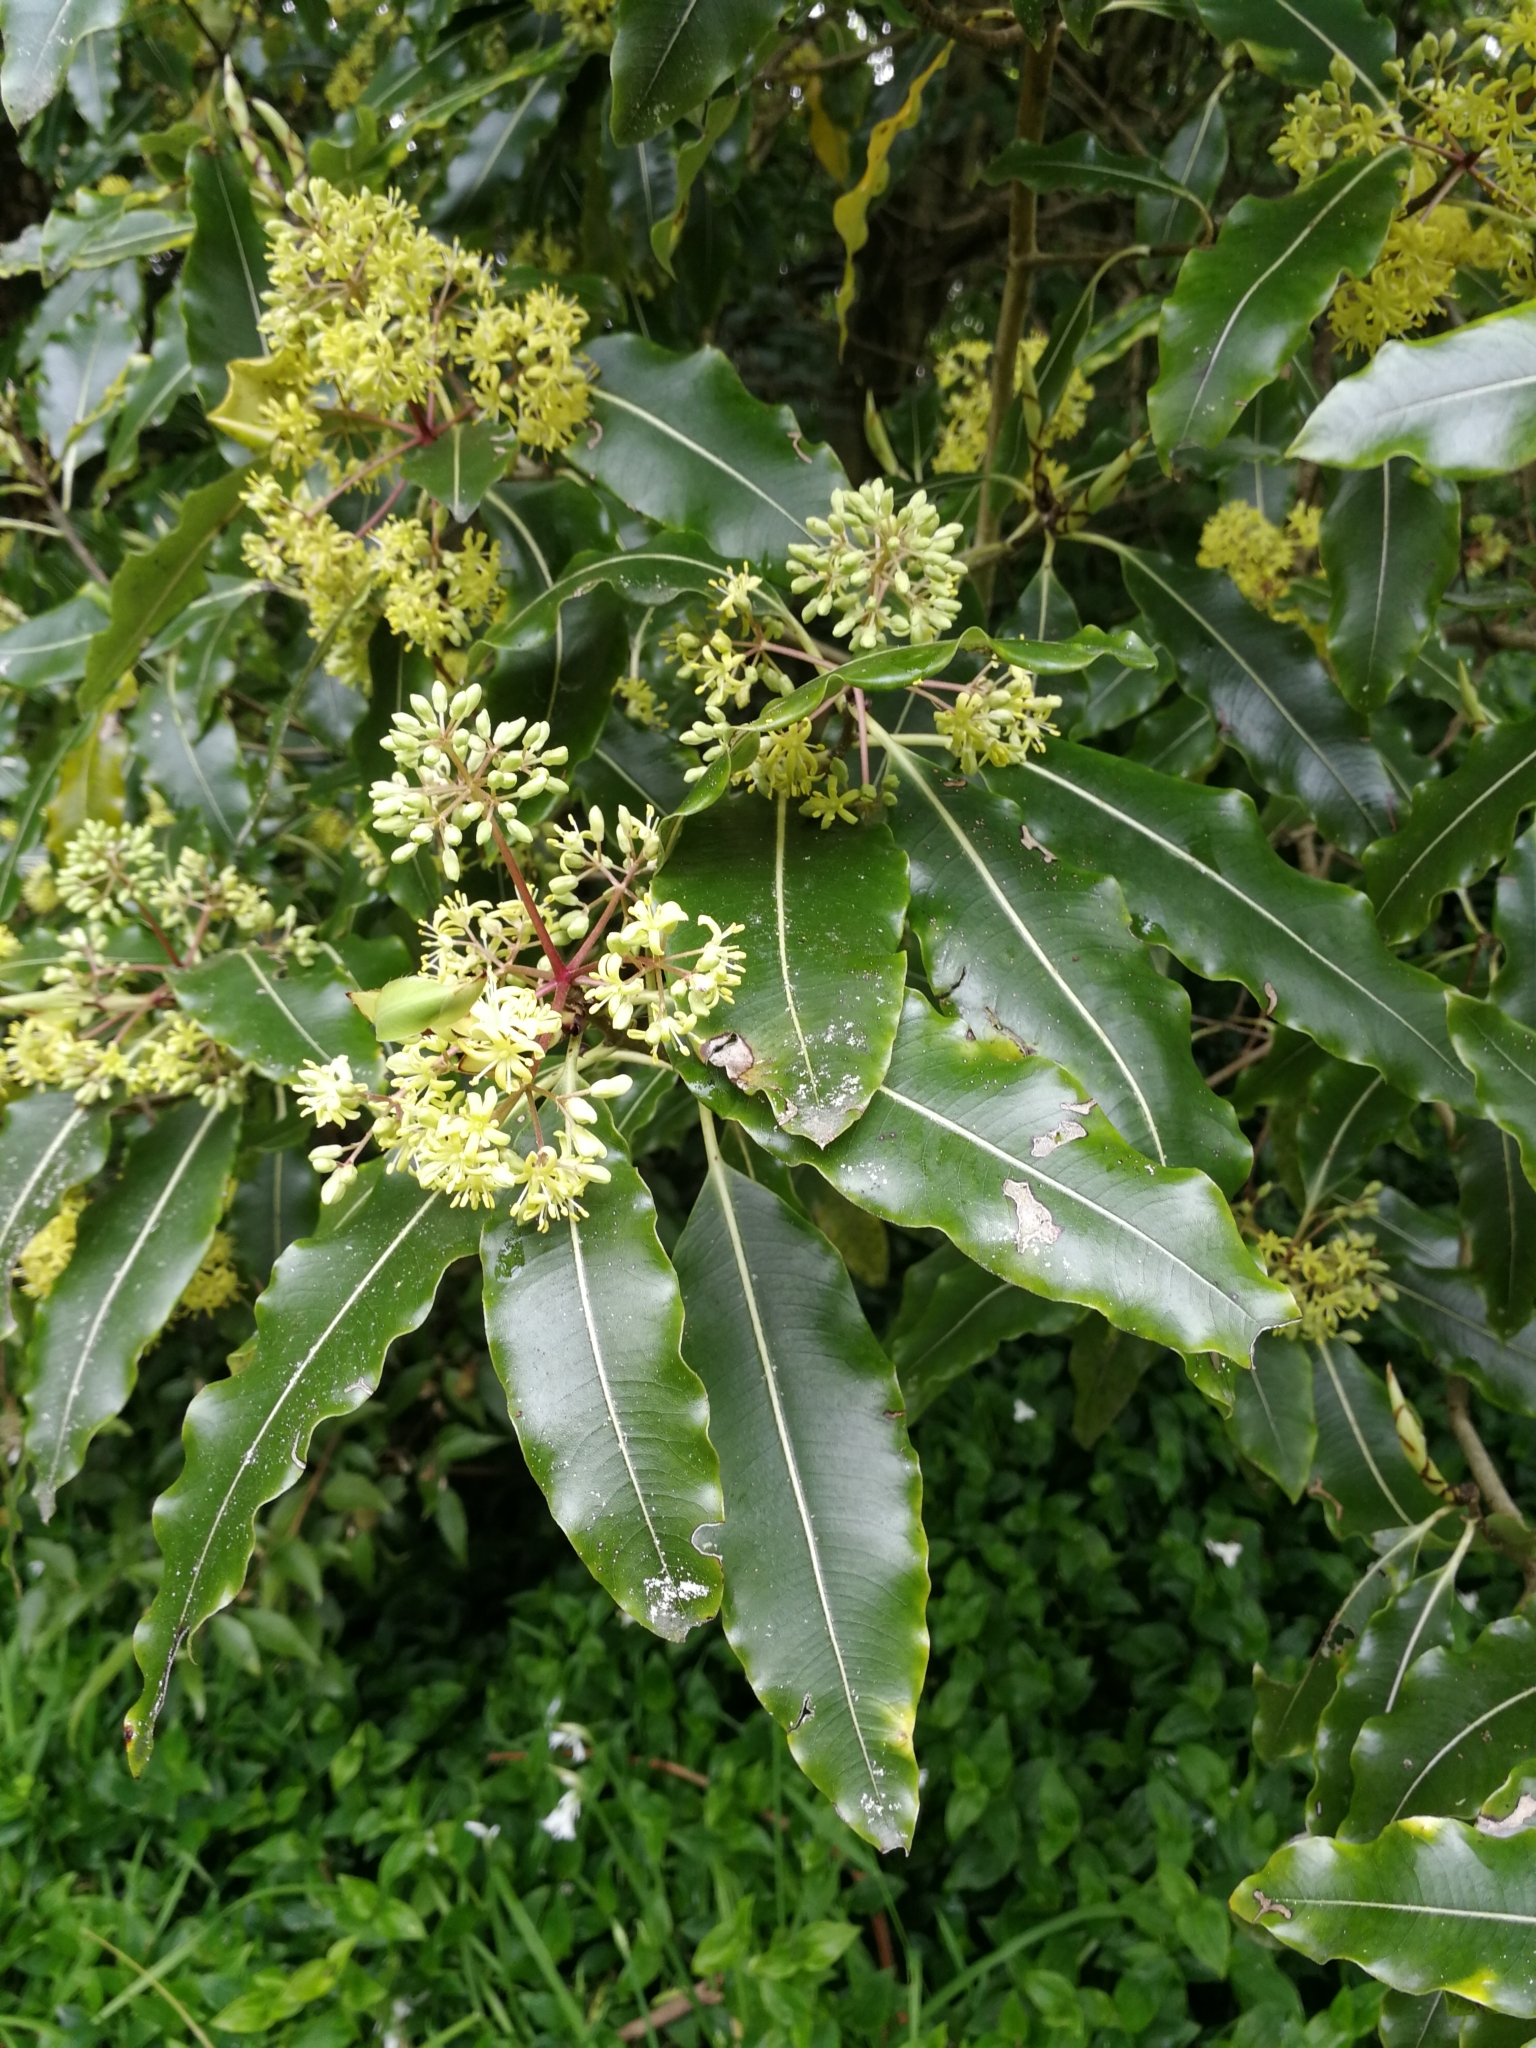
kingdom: Plantae
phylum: Tracheophyta
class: Magnoliopsida
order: Apiales
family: Pittosporaceae
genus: Pittosporum
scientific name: Pittosporum eugenioides
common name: Lemonwood
